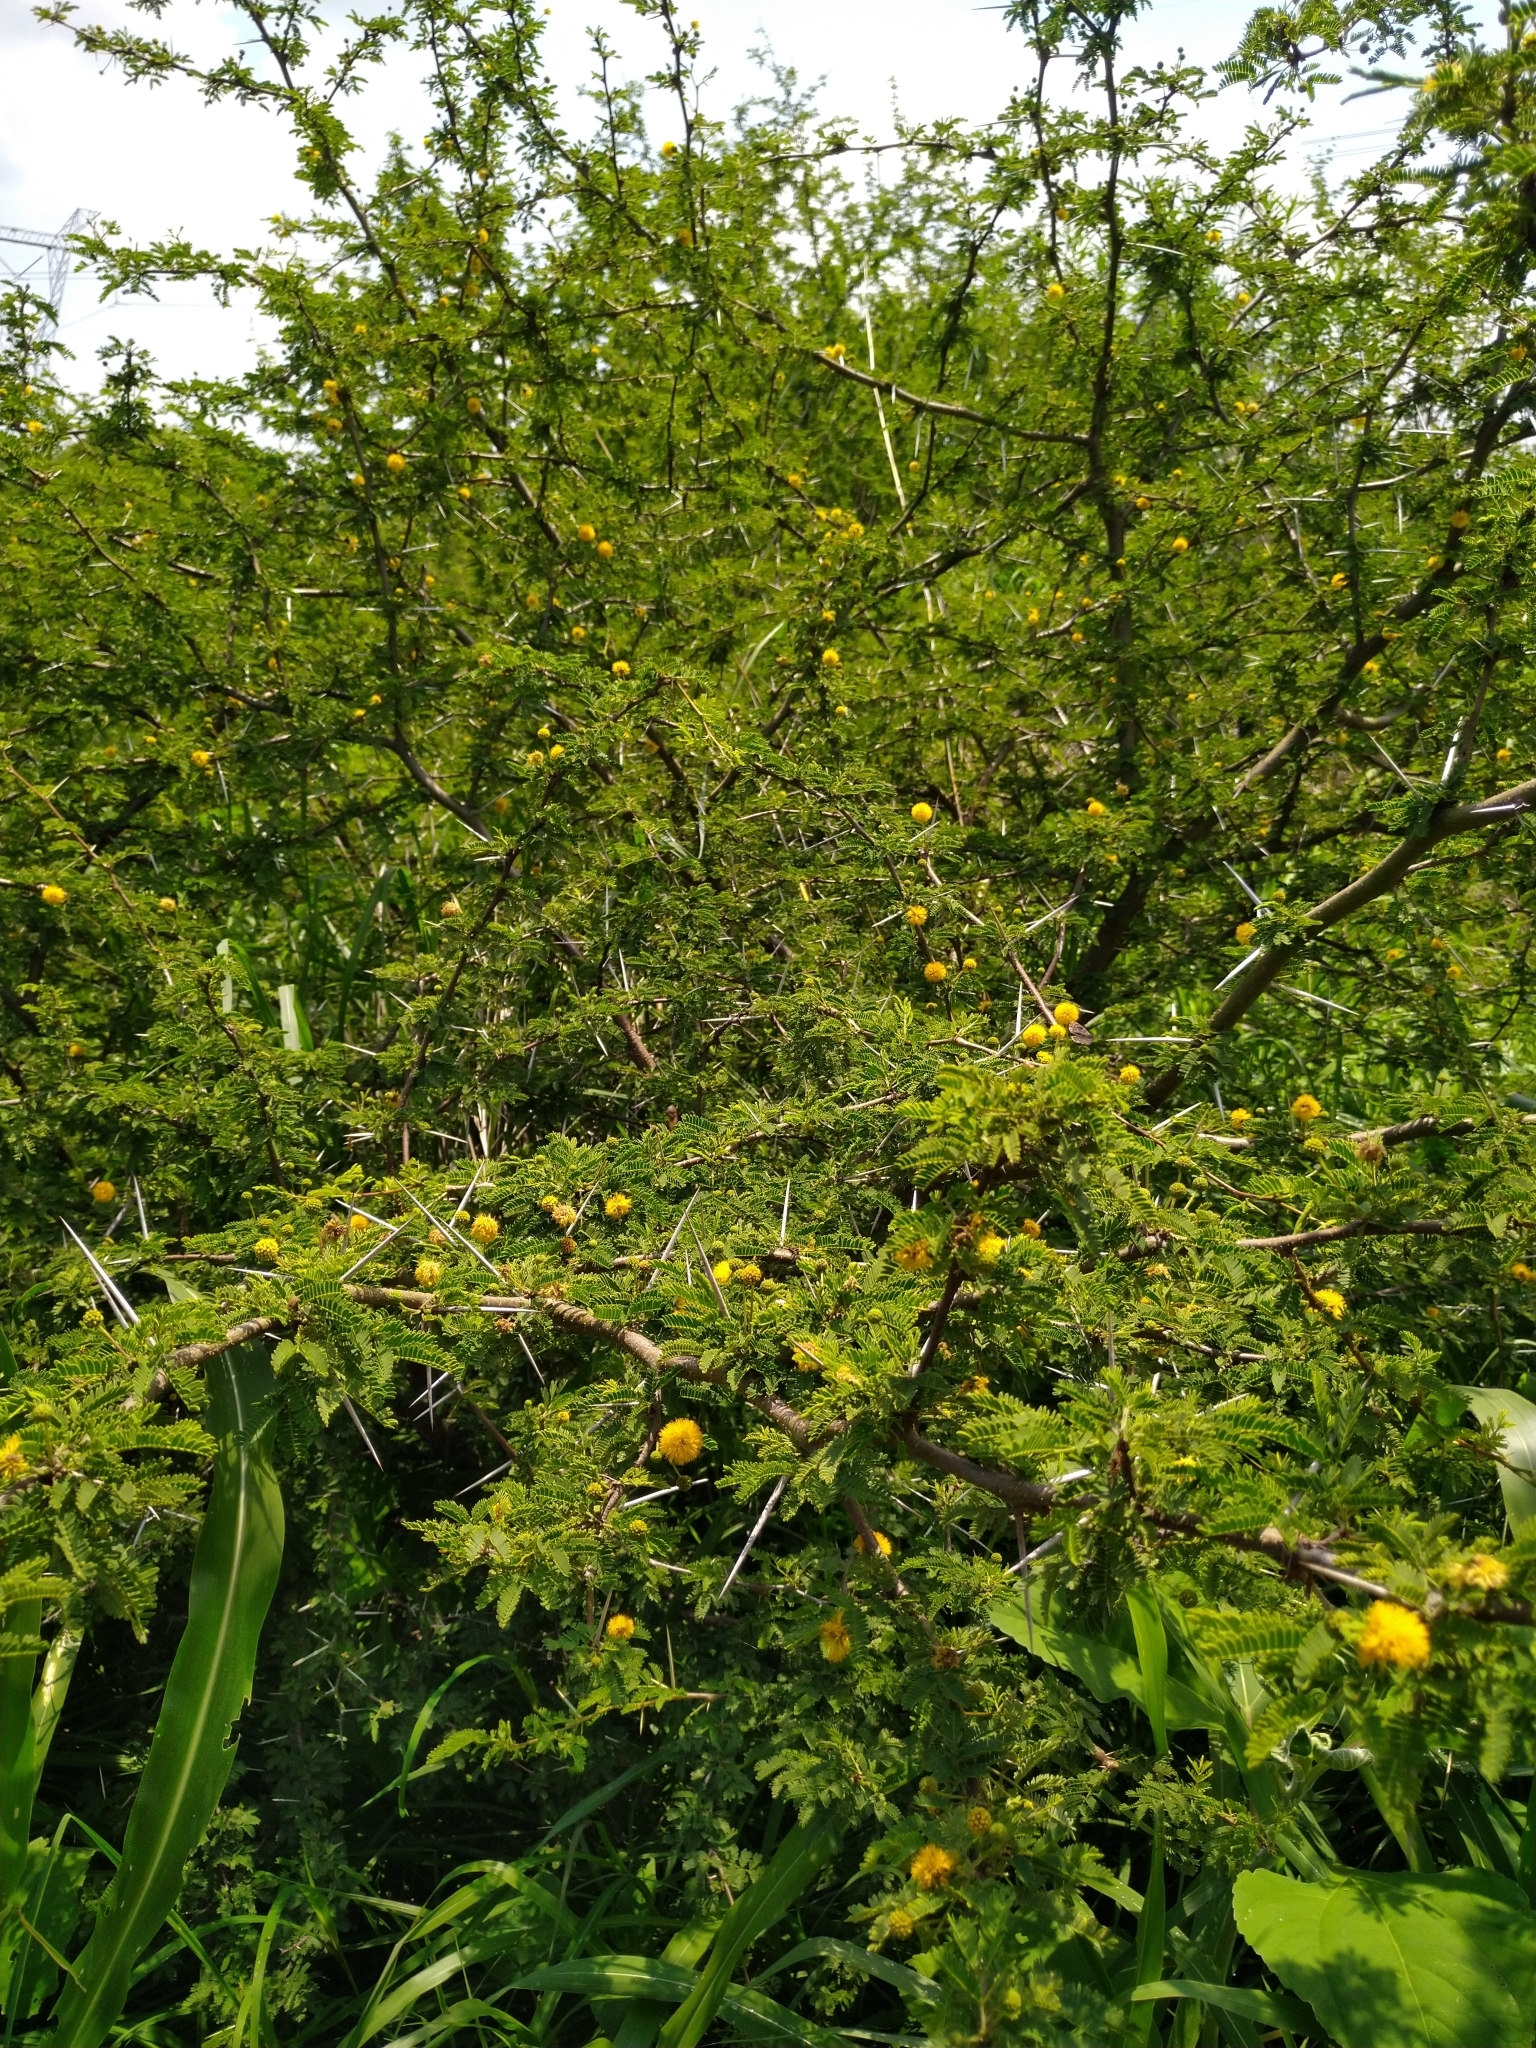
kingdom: Plantae
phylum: Tracheophyta
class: Magnoliopsida
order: Fabales
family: Fabaceae
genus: Vachellia
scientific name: Vachellia farnesiana
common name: Sweet acacia
